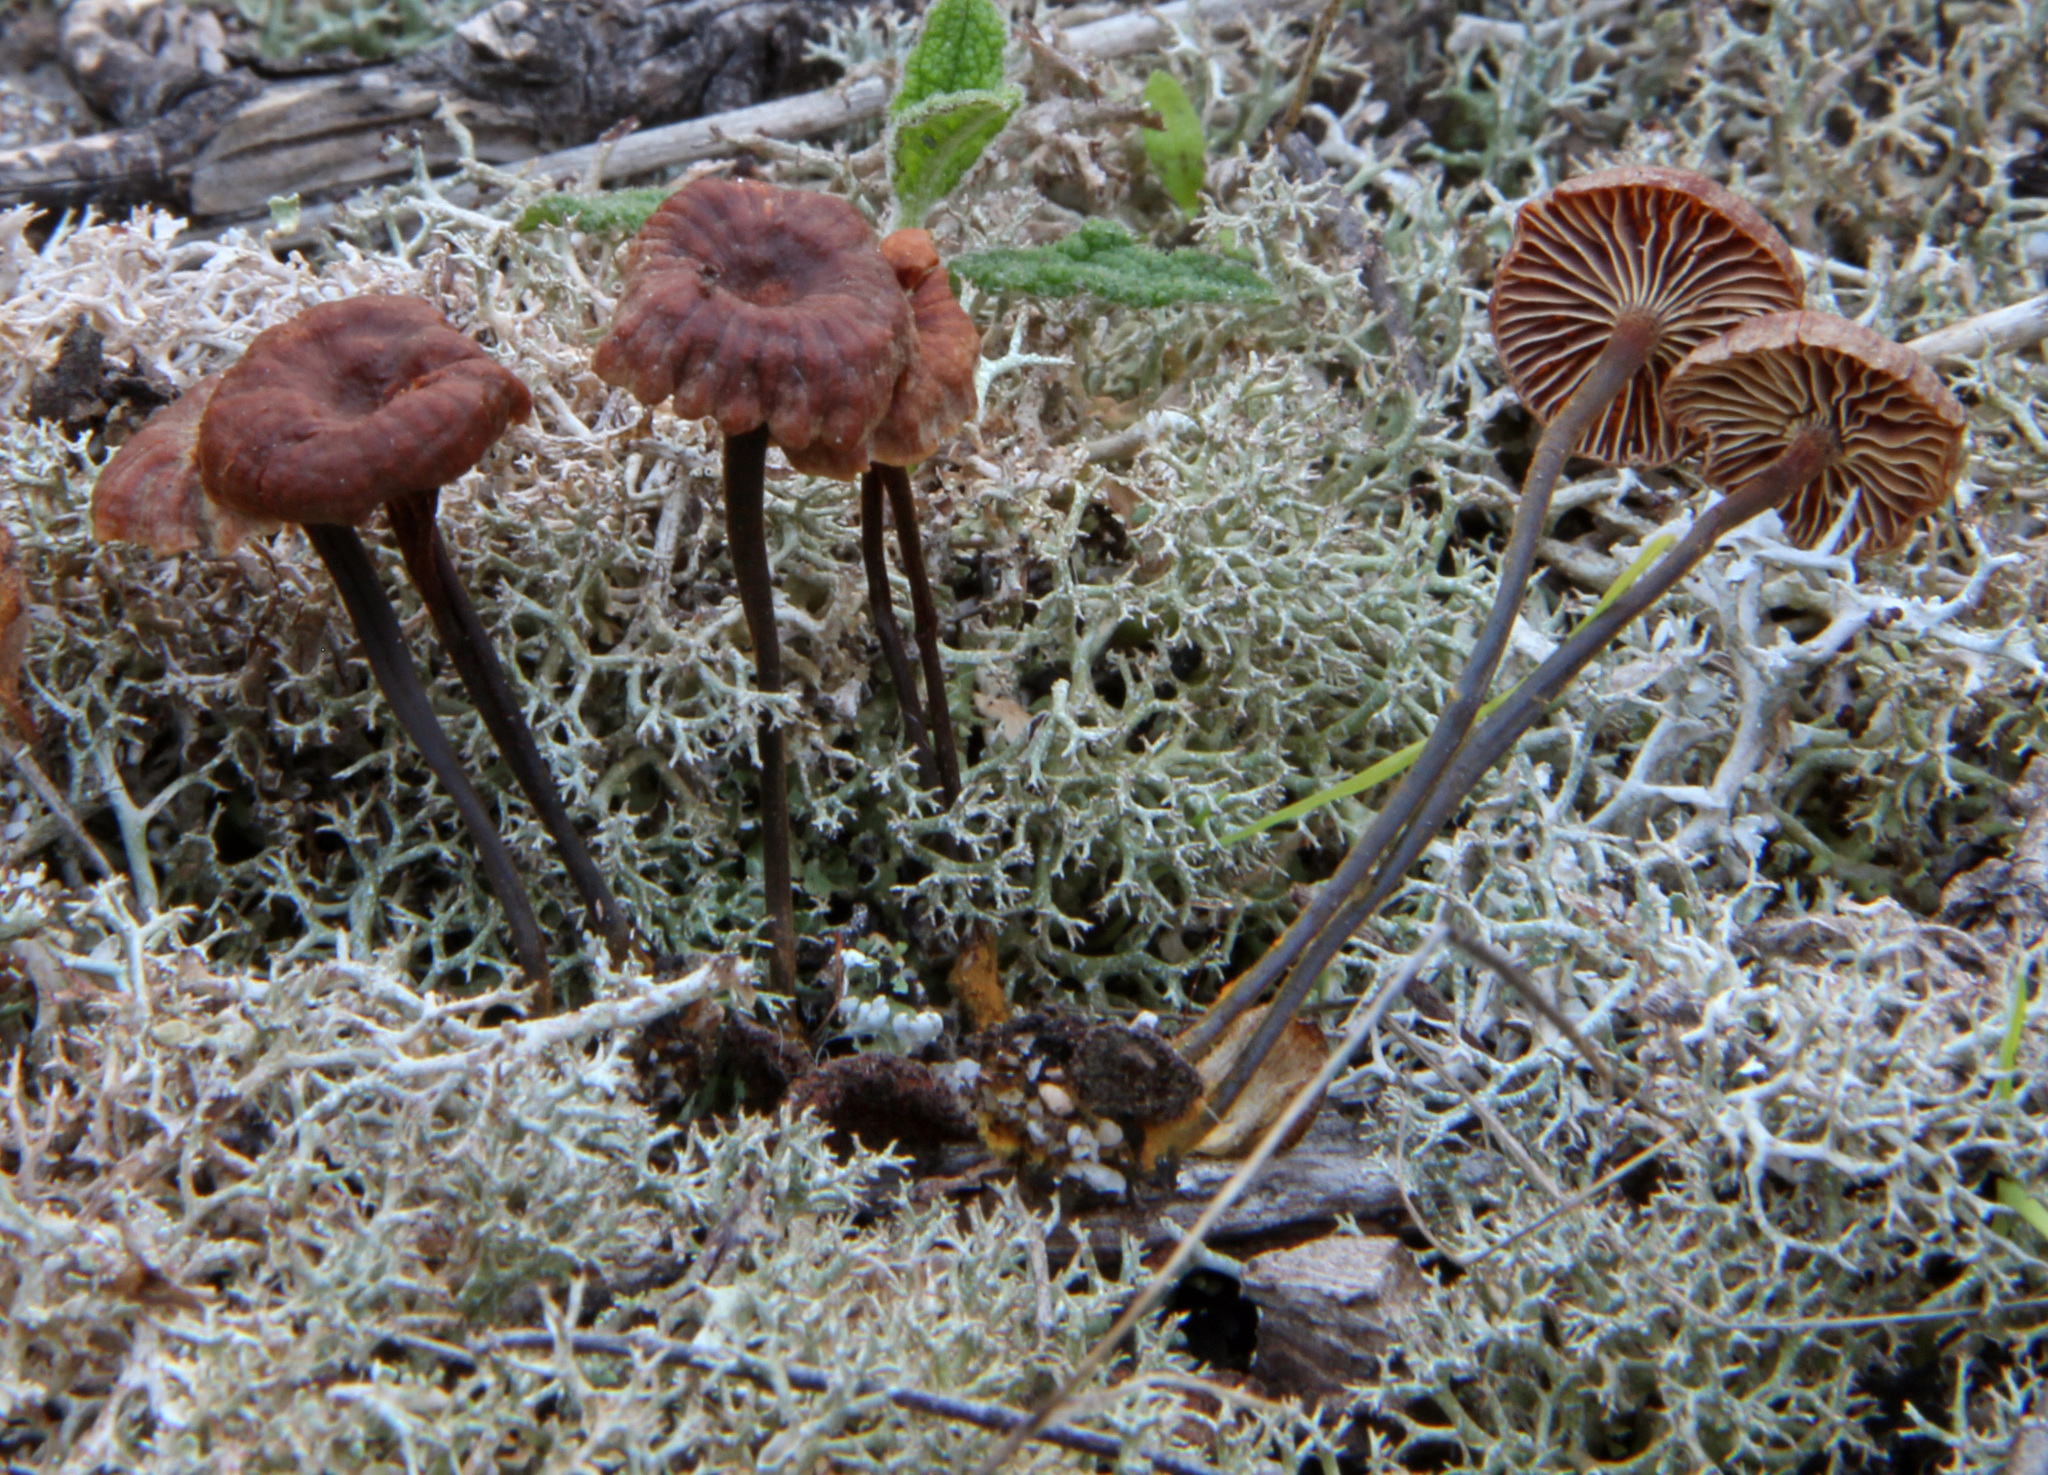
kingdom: Fungi
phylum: Basidiomycota
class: Agaricomycetes
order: Agaricales
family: Mycenaceae
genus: Xeromphalina
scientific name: Xeromphalina setulipes
